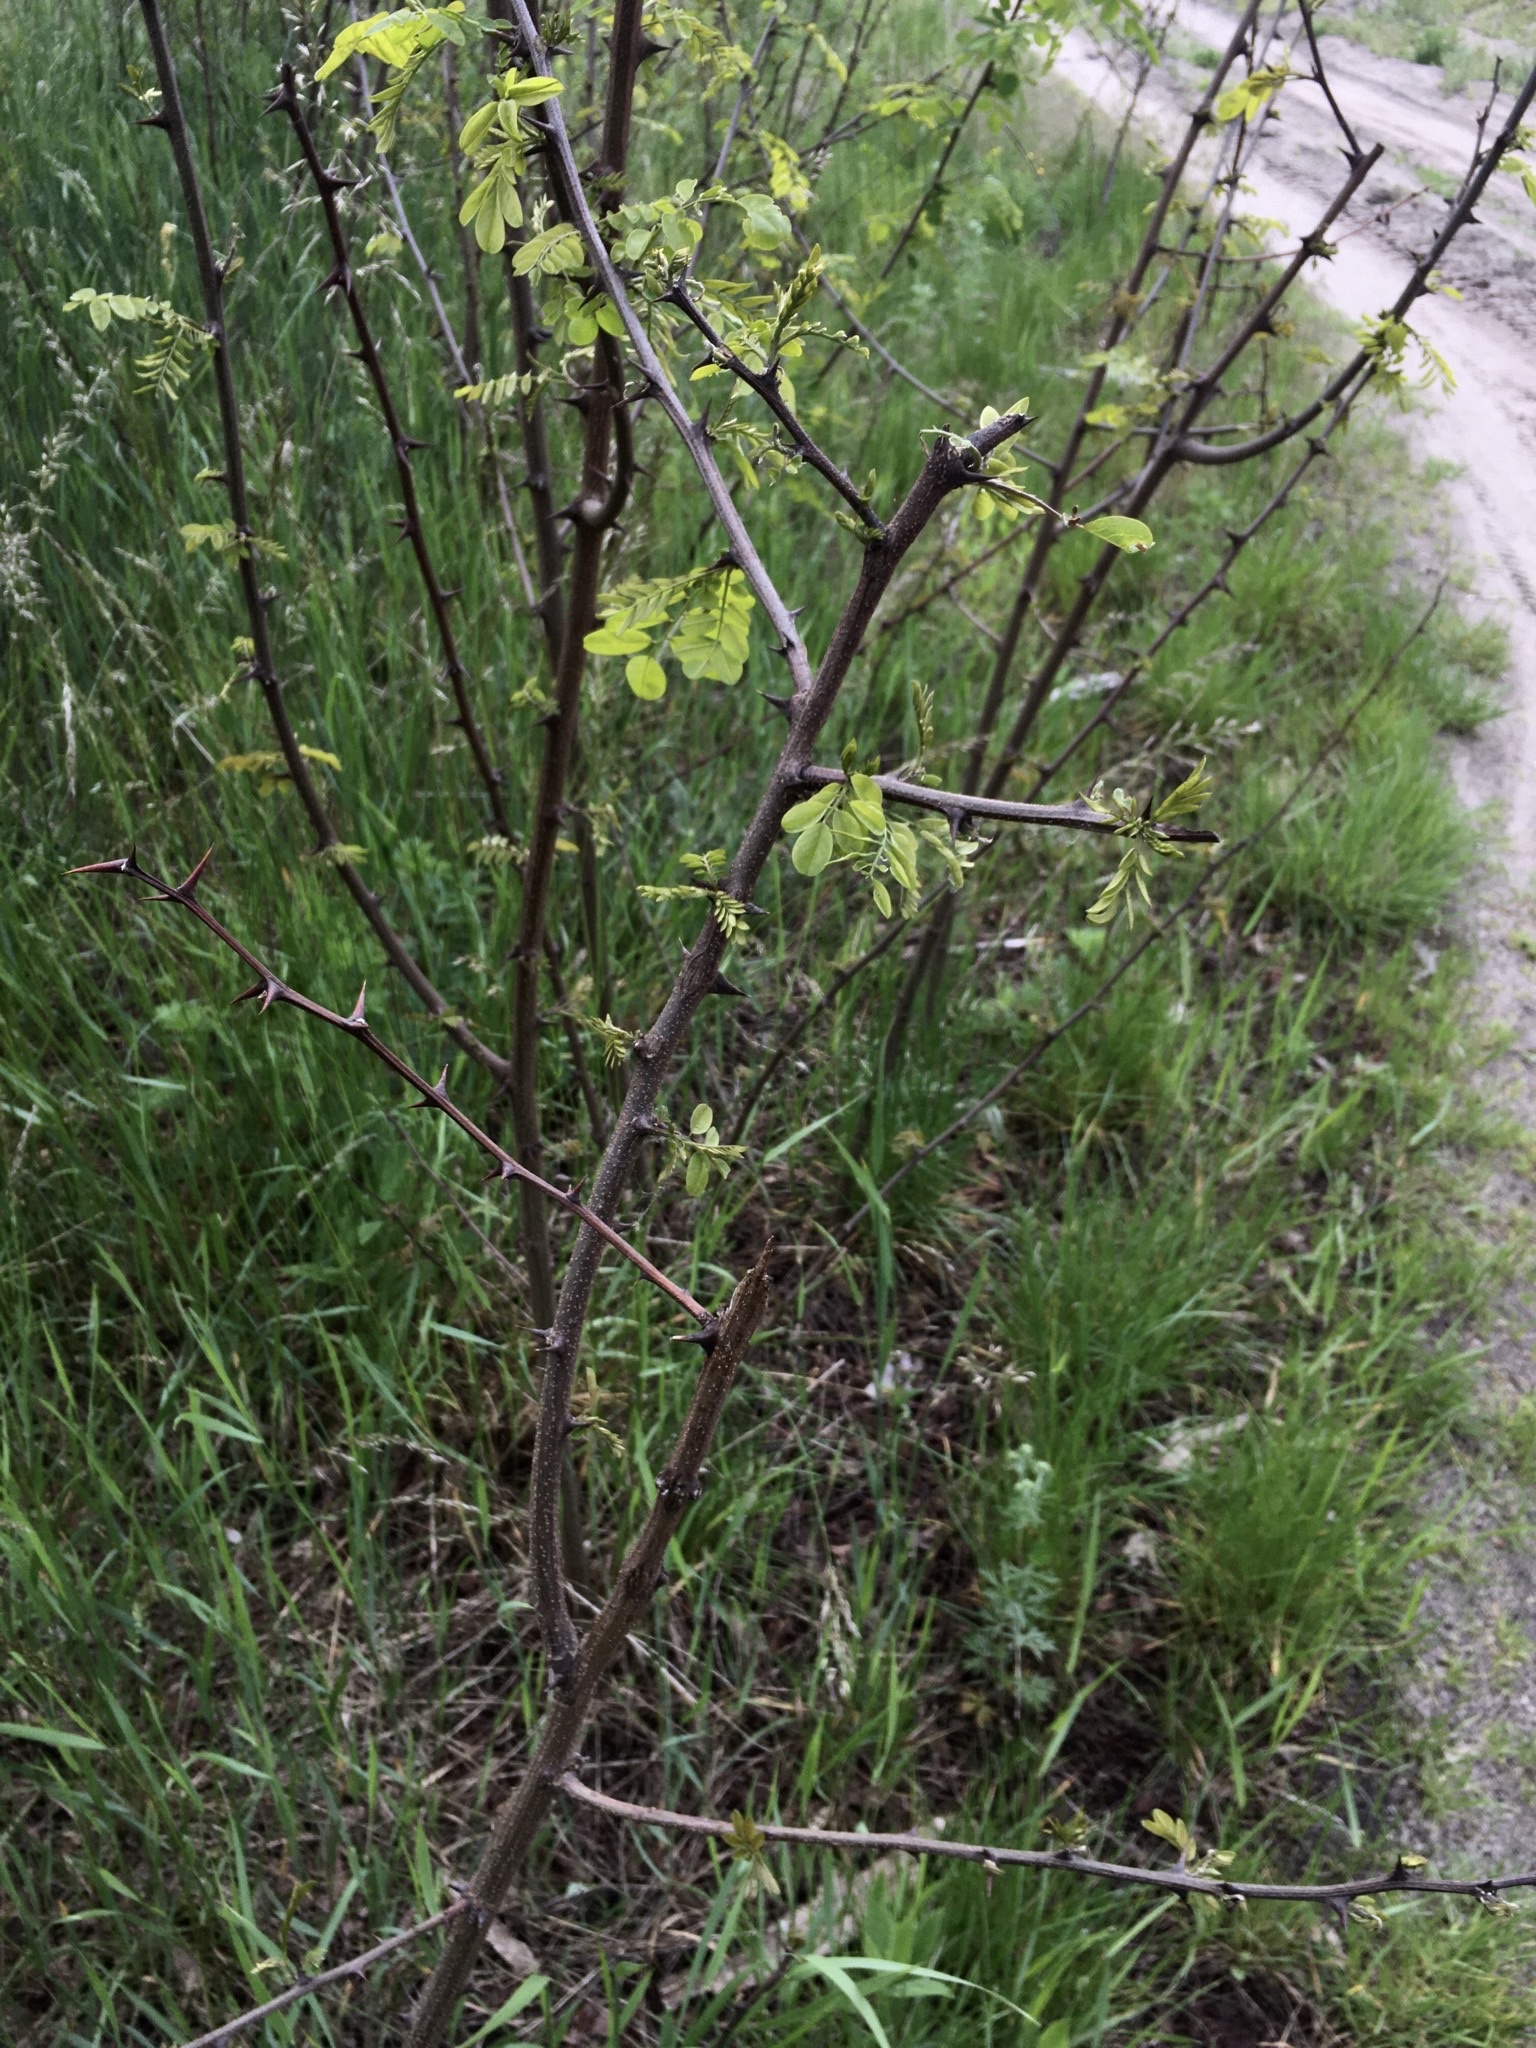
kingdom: Plantae
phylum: Tracheophyta
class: Magnoliopsida
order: Fabales
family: Fabaceae
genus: Robinia
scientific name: Robinia pseudoacacia
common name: Black locust
